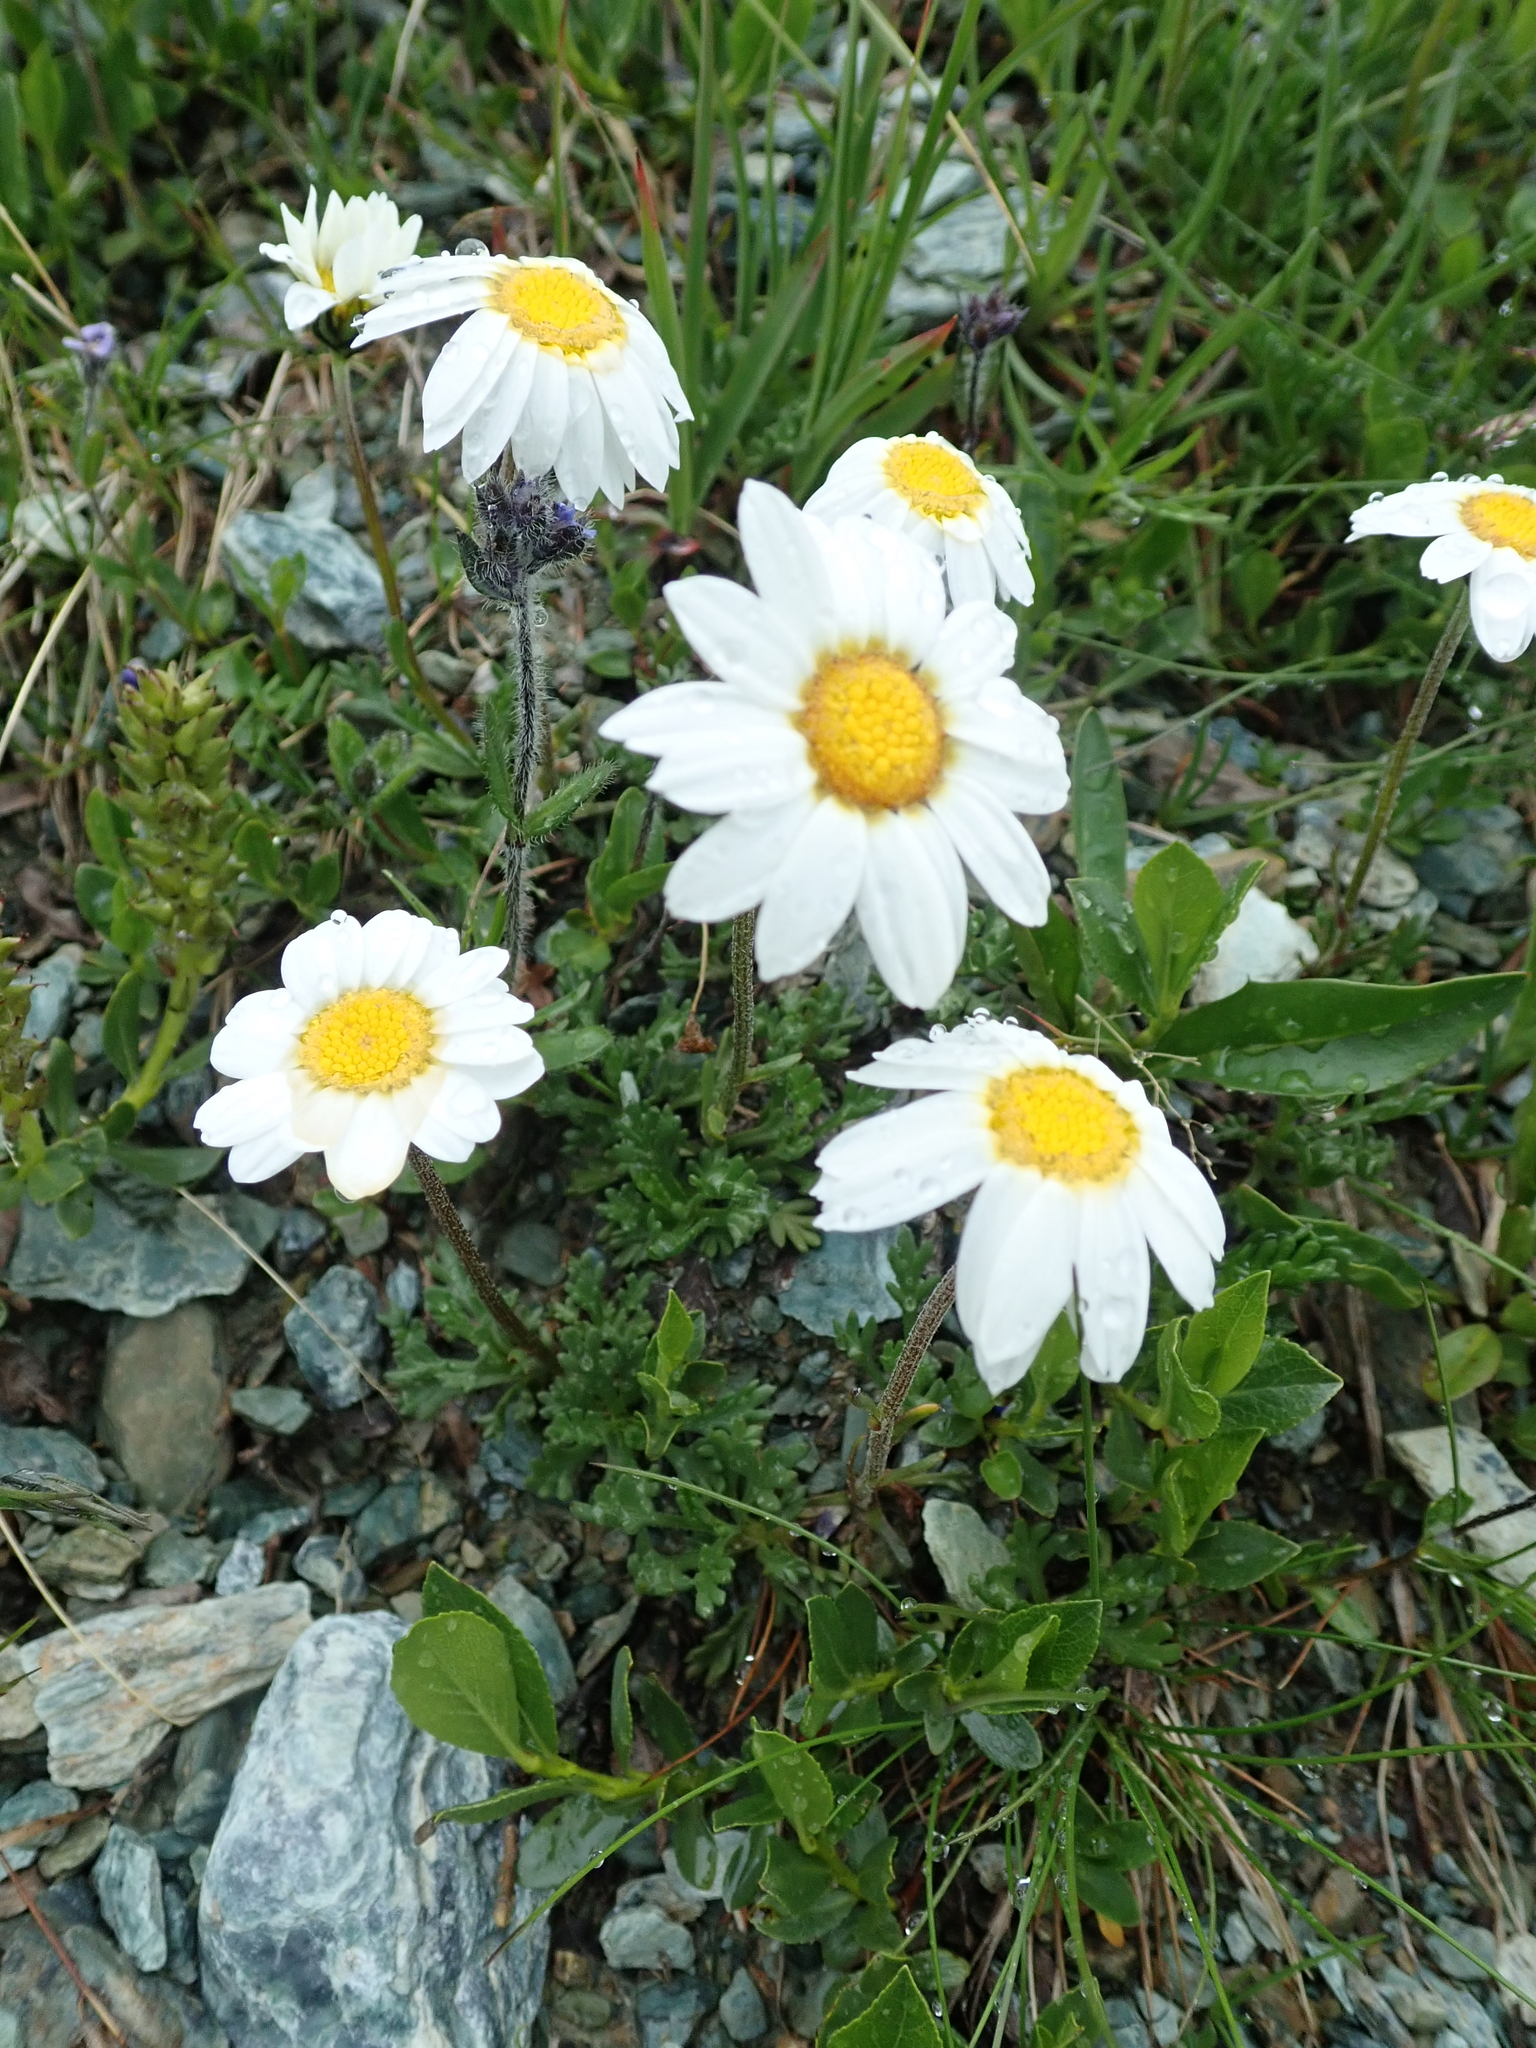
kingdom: Plantae
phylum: Tracheophyta
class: Magnoliopsida
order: Asterales
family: Asteraceae
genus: Leucanthemopsis
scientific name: Leucanthemopsis alpina
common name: Alpine moon daisy
